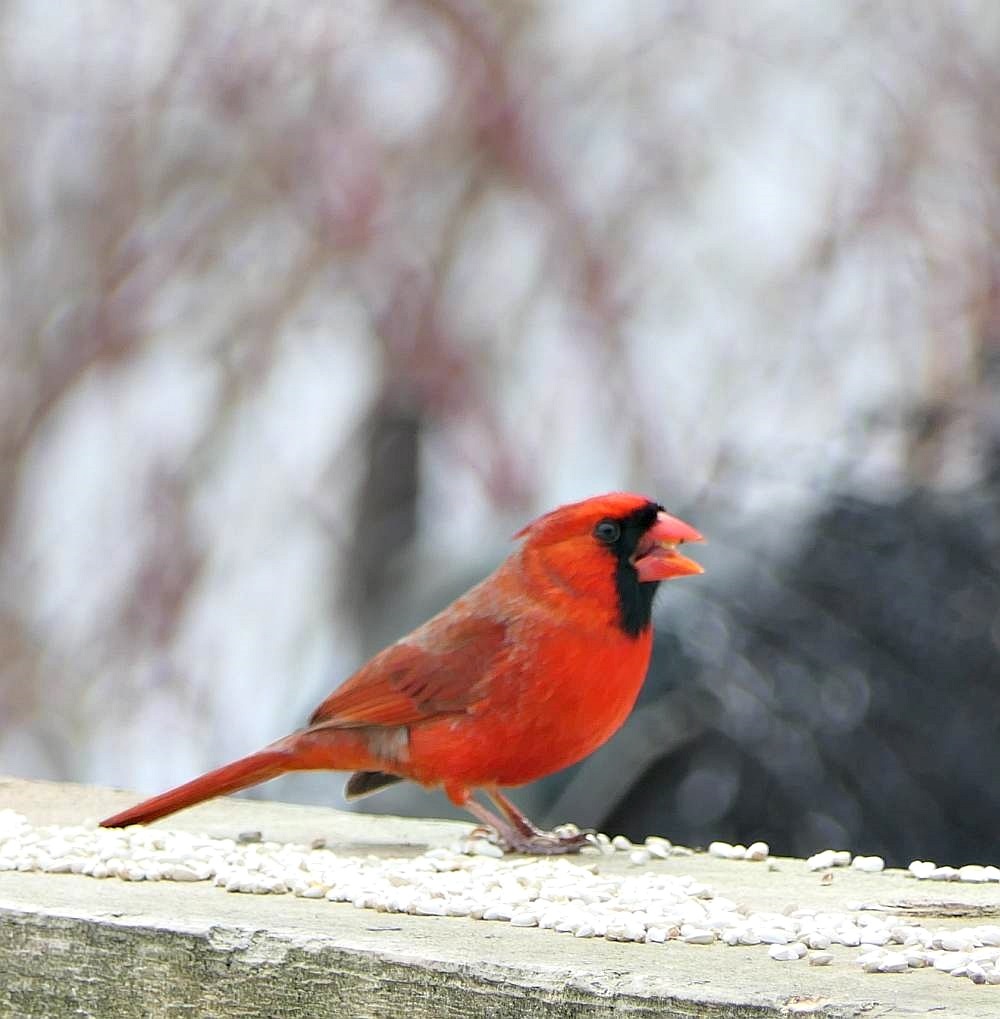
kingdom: Animalia
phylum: Chordata
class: Aves
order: Passeriformes
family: Cardinalidae
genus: Cardinalis
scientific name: Cardinalis cardinalis
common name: Northern cardinal
